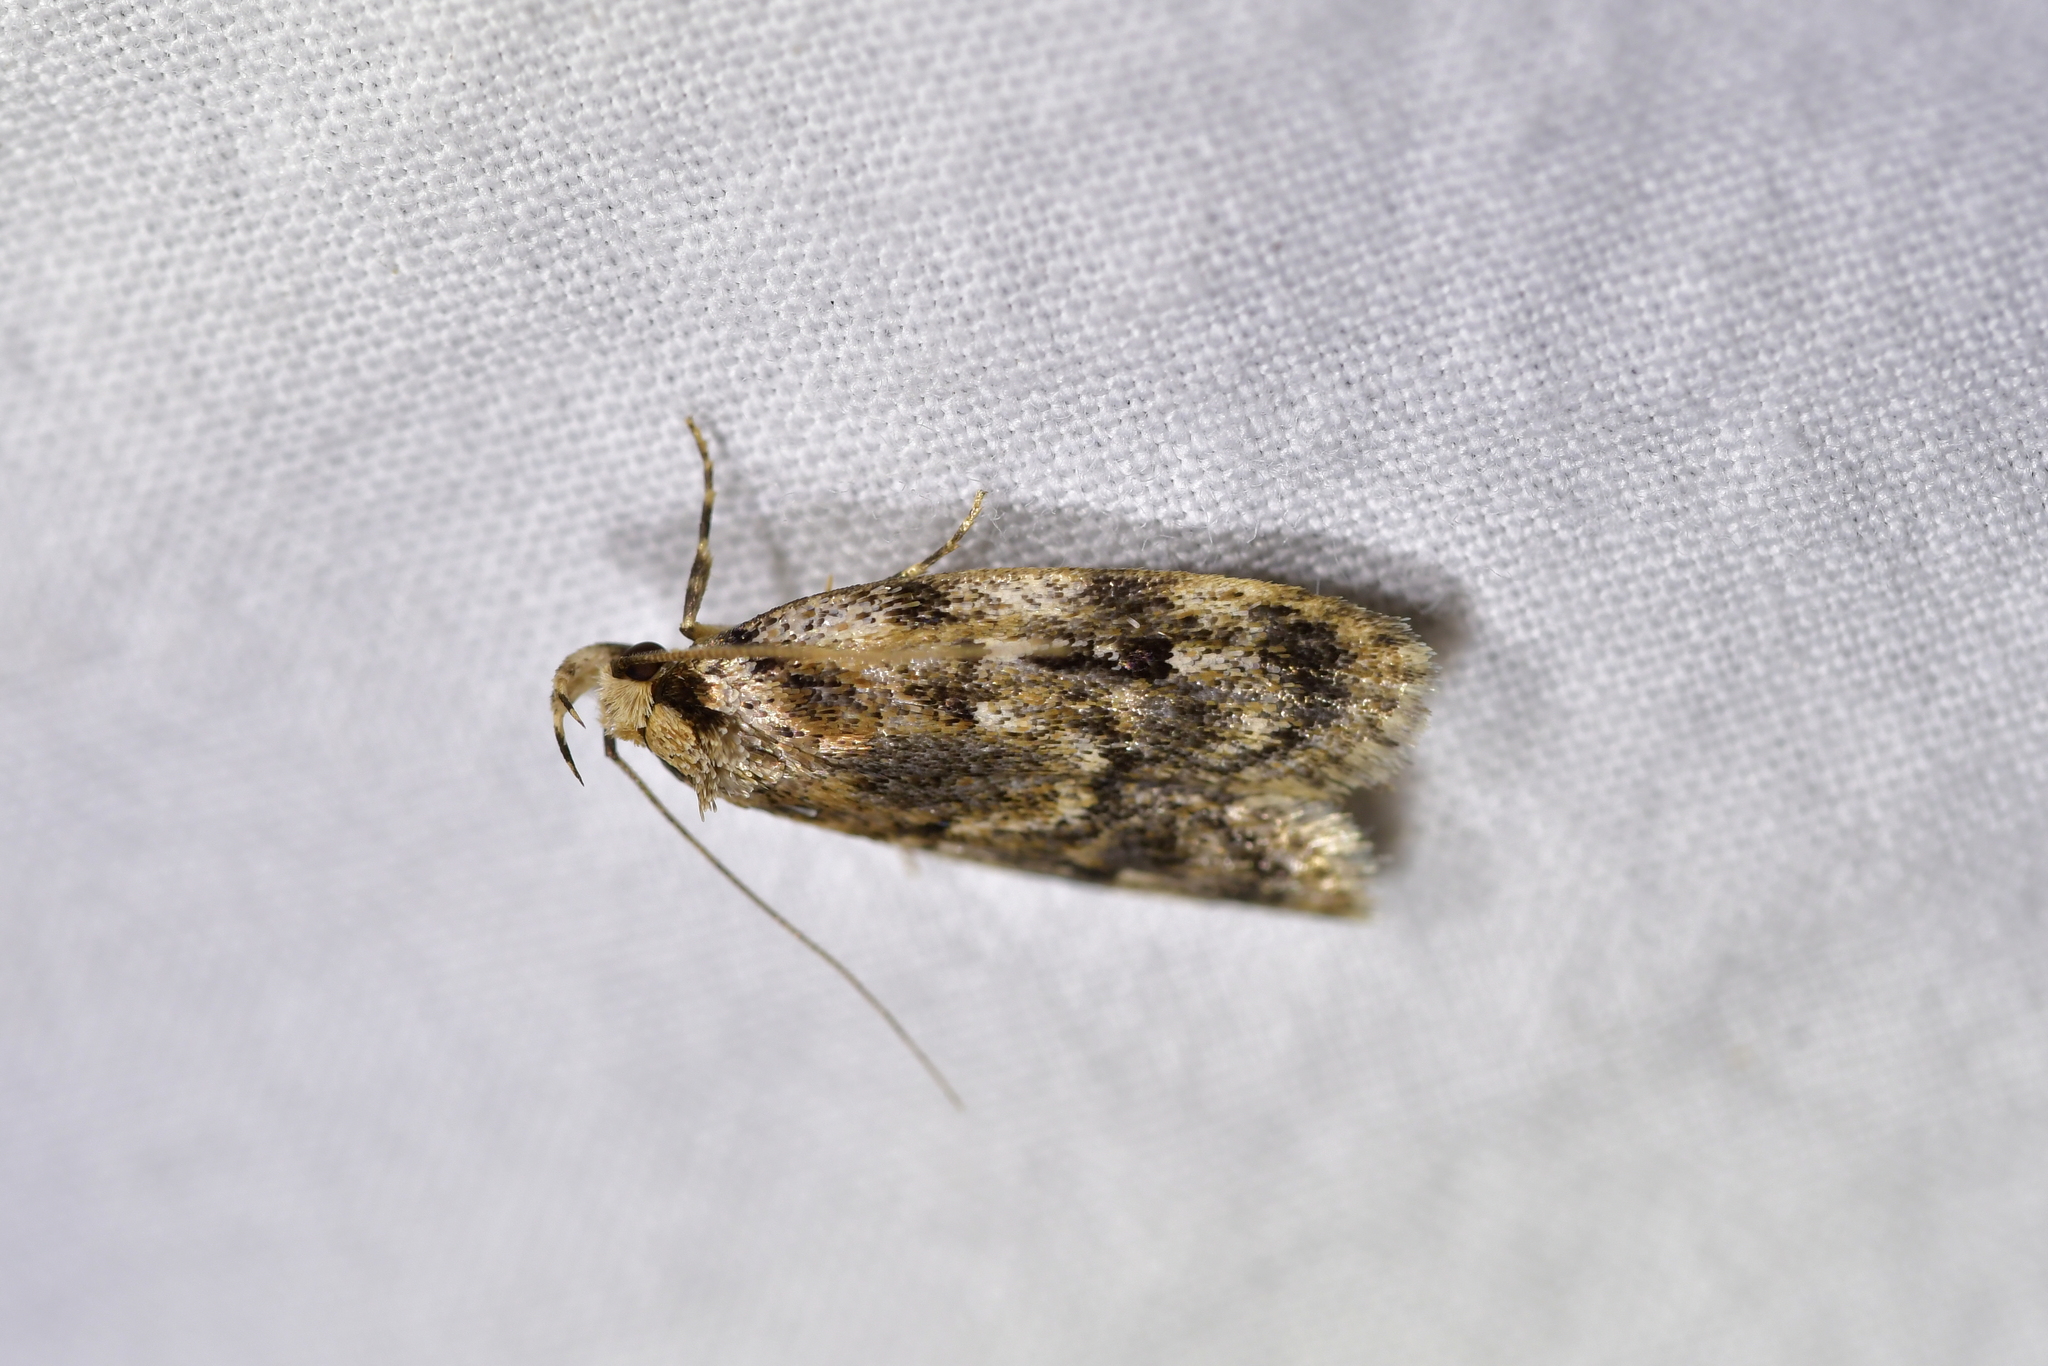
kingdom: Animalia
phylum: Arthropoda
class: Insecta
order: Lepidoptera
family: Oecophoridae
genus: Barea
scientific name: Barea exarcha
